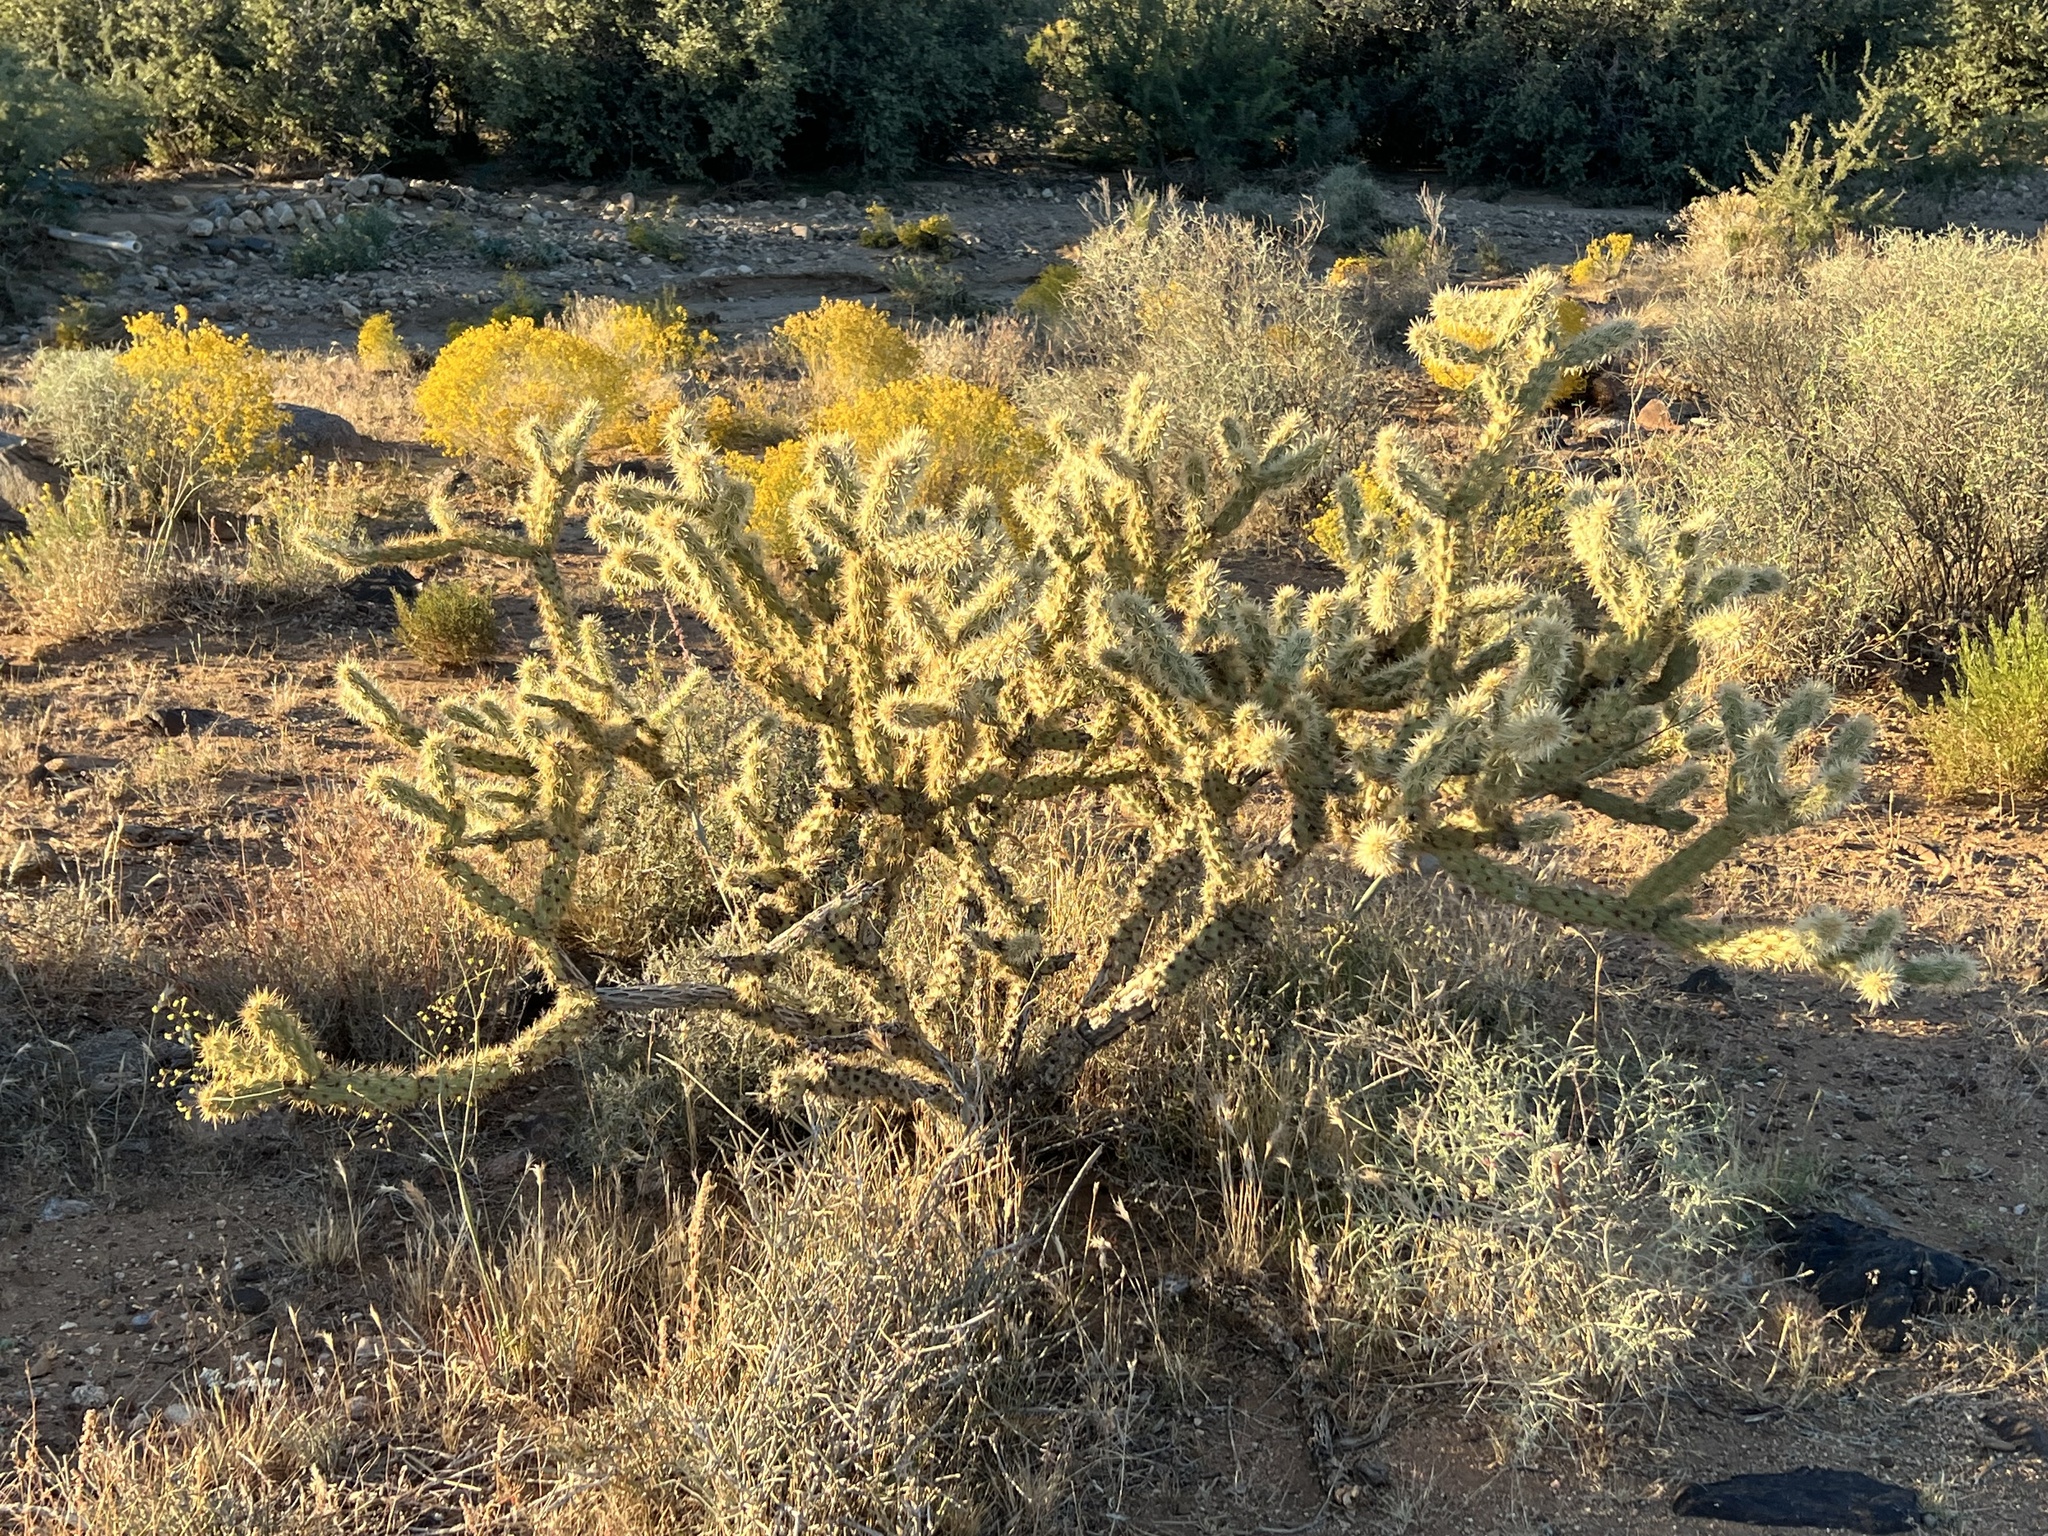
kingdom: Plantae
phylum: Tracheophyta
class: Magnoliopsida
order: Caryophyllales
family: Cactaceae
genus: Cylindropuntia
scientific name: Cylindropuntia acanthocarpa
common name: Buckhorn cholla
